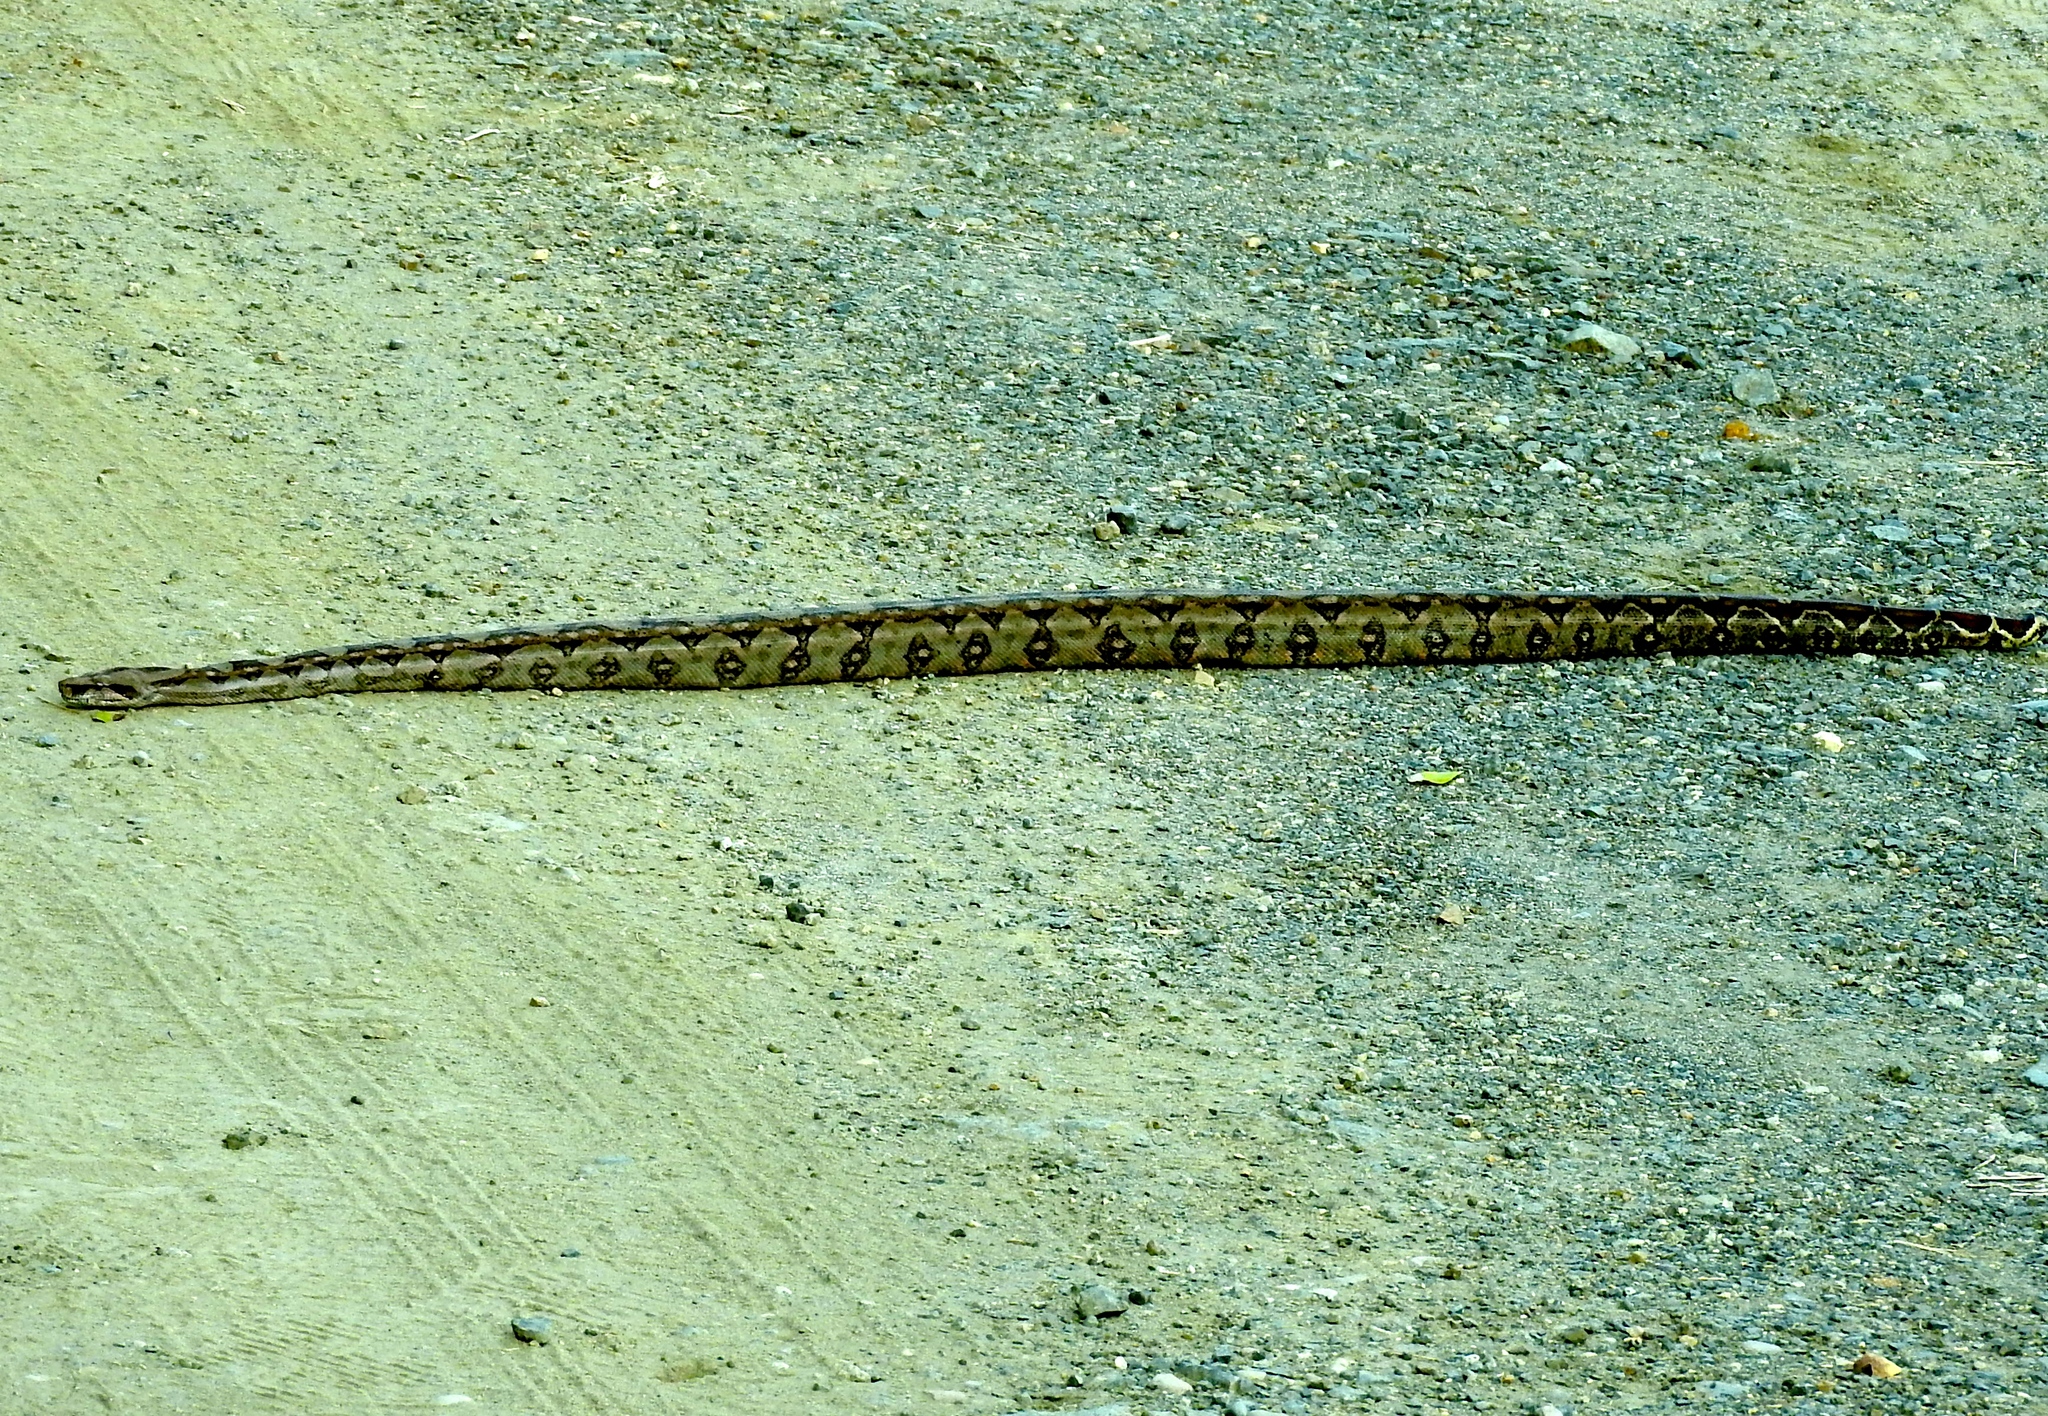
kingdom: Animalia
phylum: Chordata
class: Squamata
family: Boidae
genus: Boa
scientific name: Boa
